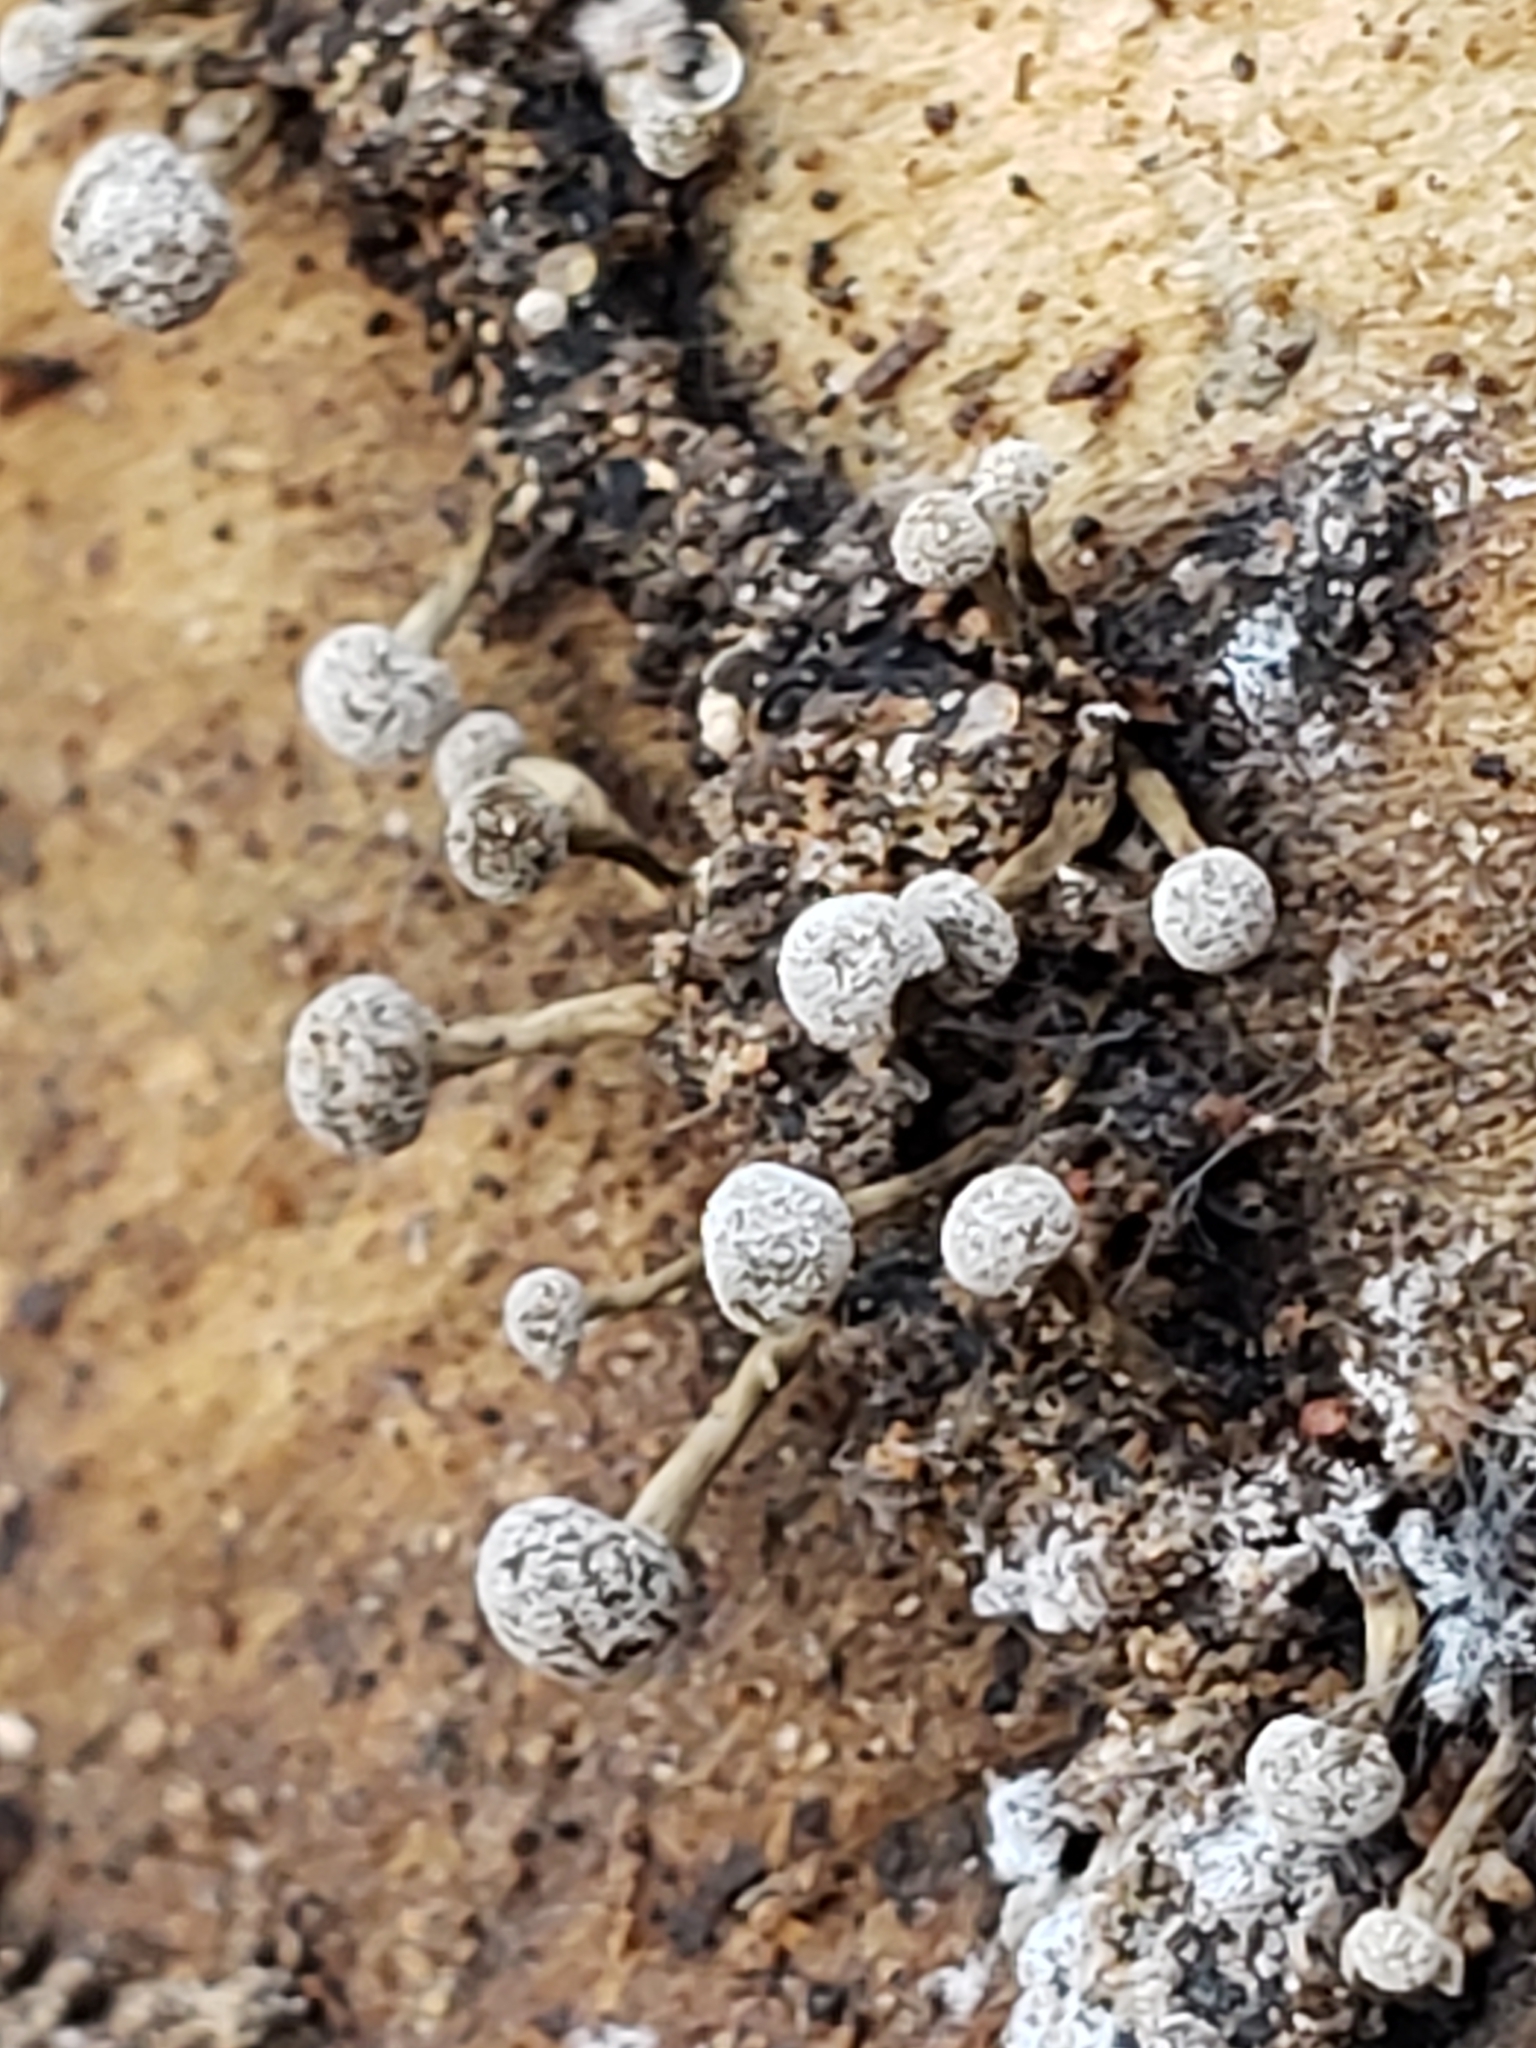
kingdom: Fungi
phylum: Basidiomycota
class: Atractiellomycetes
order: Atractiellales
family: Phleogenaceae
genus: Phleogena
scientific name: Phleogena faginea
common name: Fenugreek stalkball
